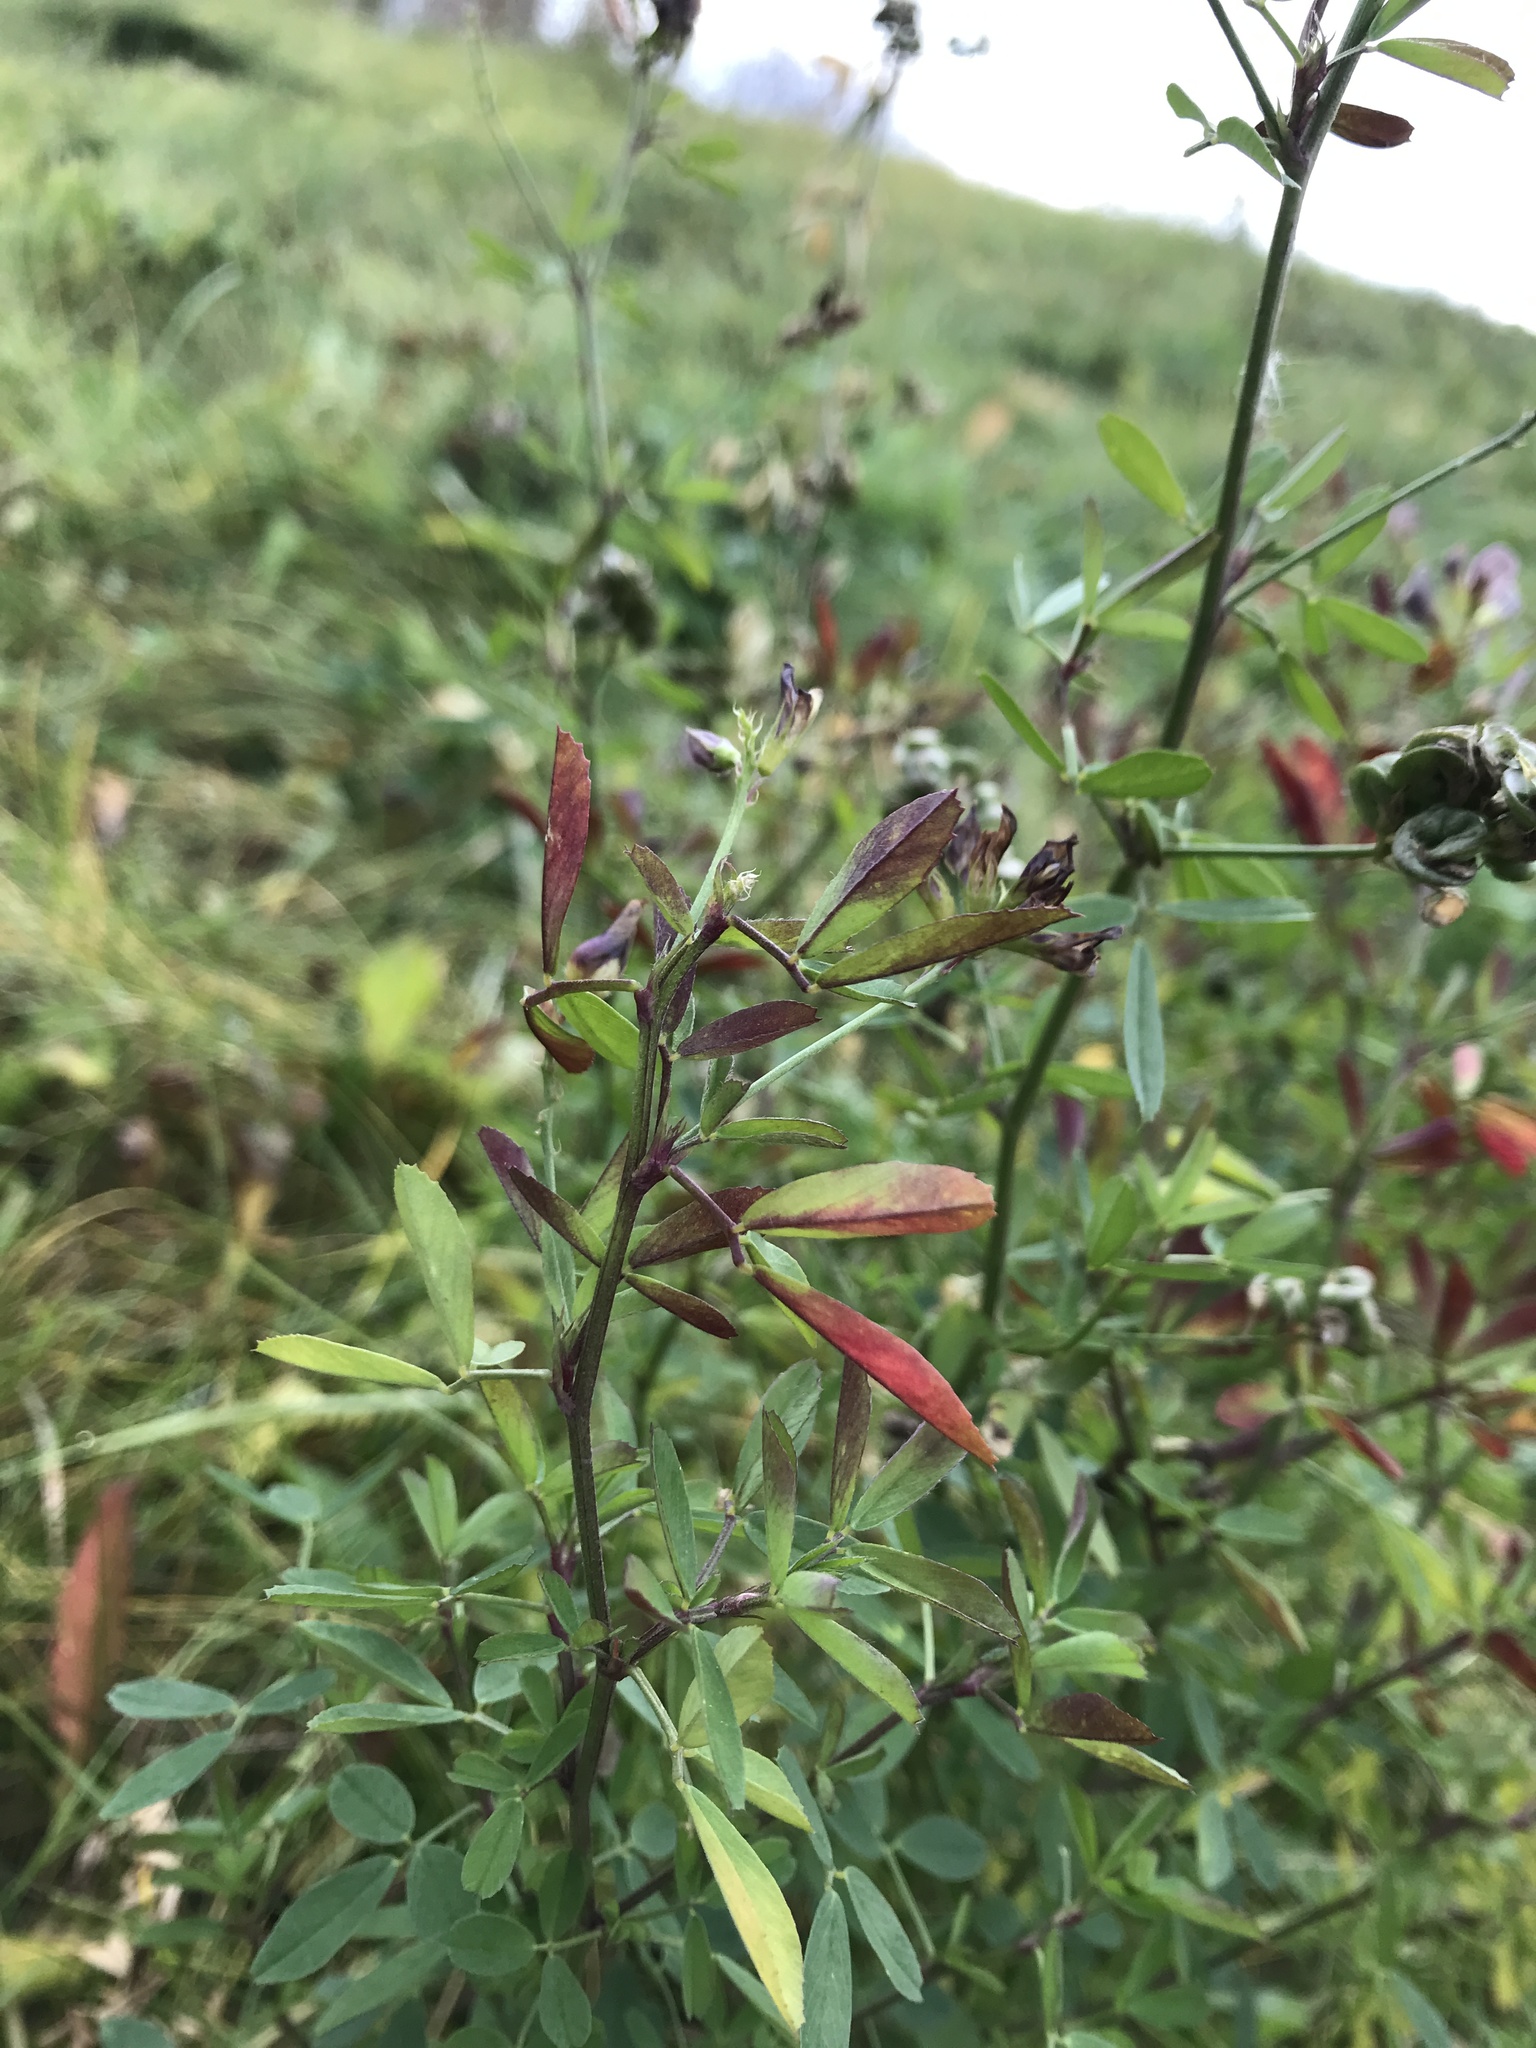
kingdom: Plantae
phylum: Tracheophyta
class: Magnoliopsida
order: Fabales
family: Fabaceae
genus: Medicago
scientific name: Medicago varia
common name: Sand lucerne
